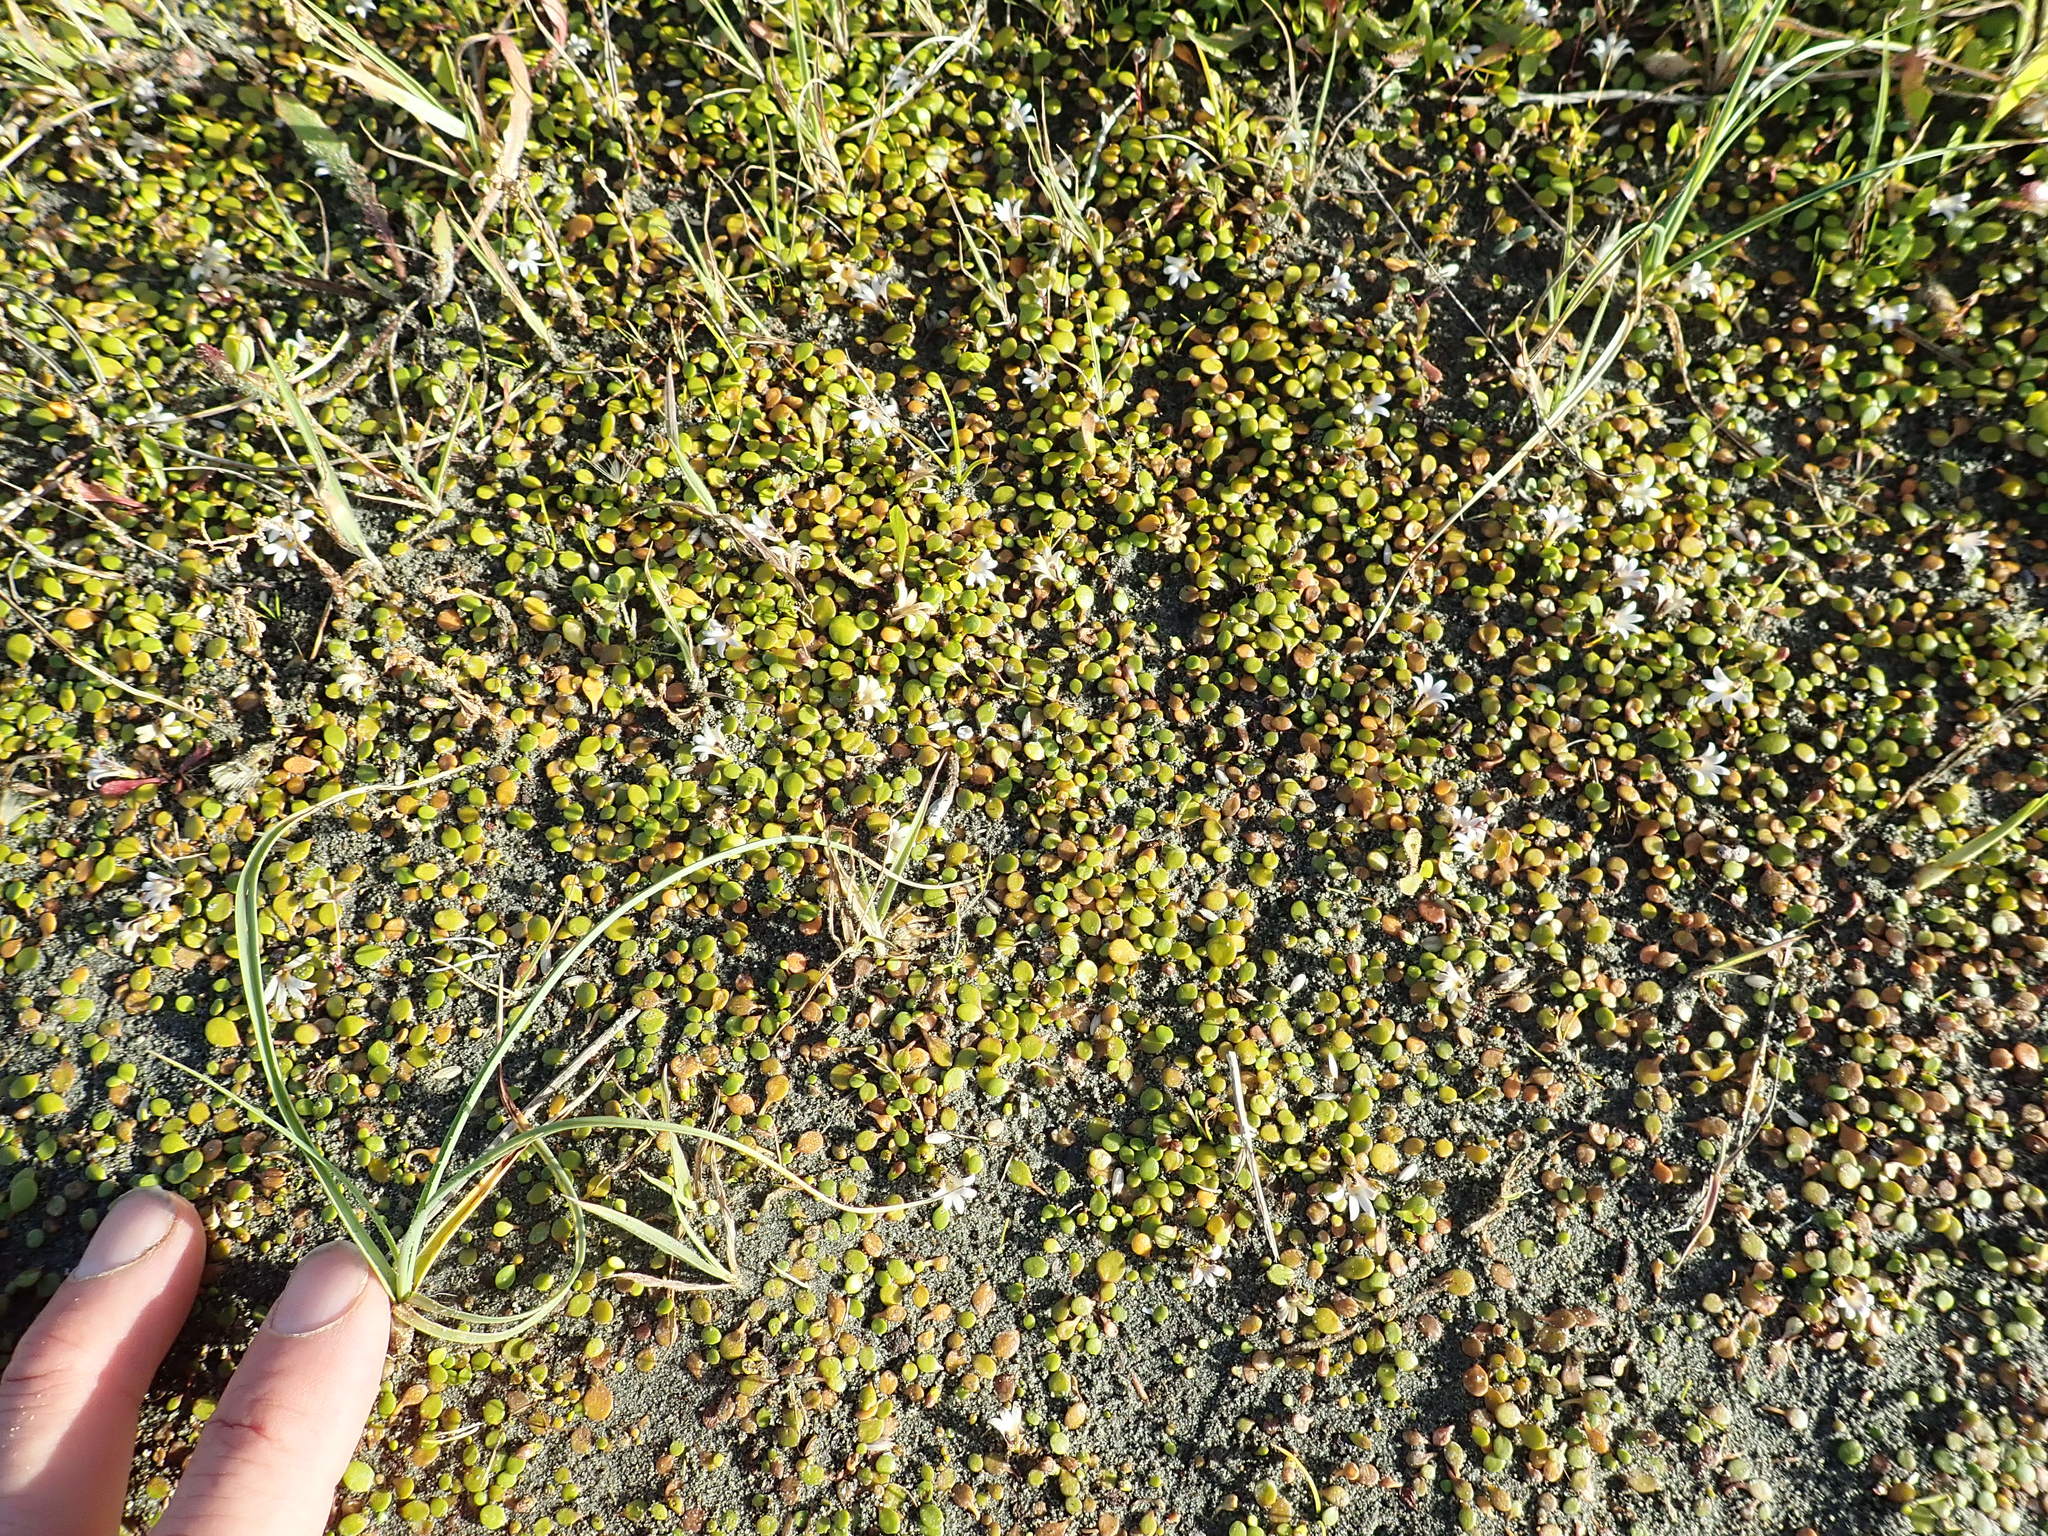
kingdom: Plantae
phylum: Tracheophyta
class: Magnoliopsida
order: Asterales
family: Goodeniaceae
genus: Goodenia
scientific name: Goodenia heenanii
